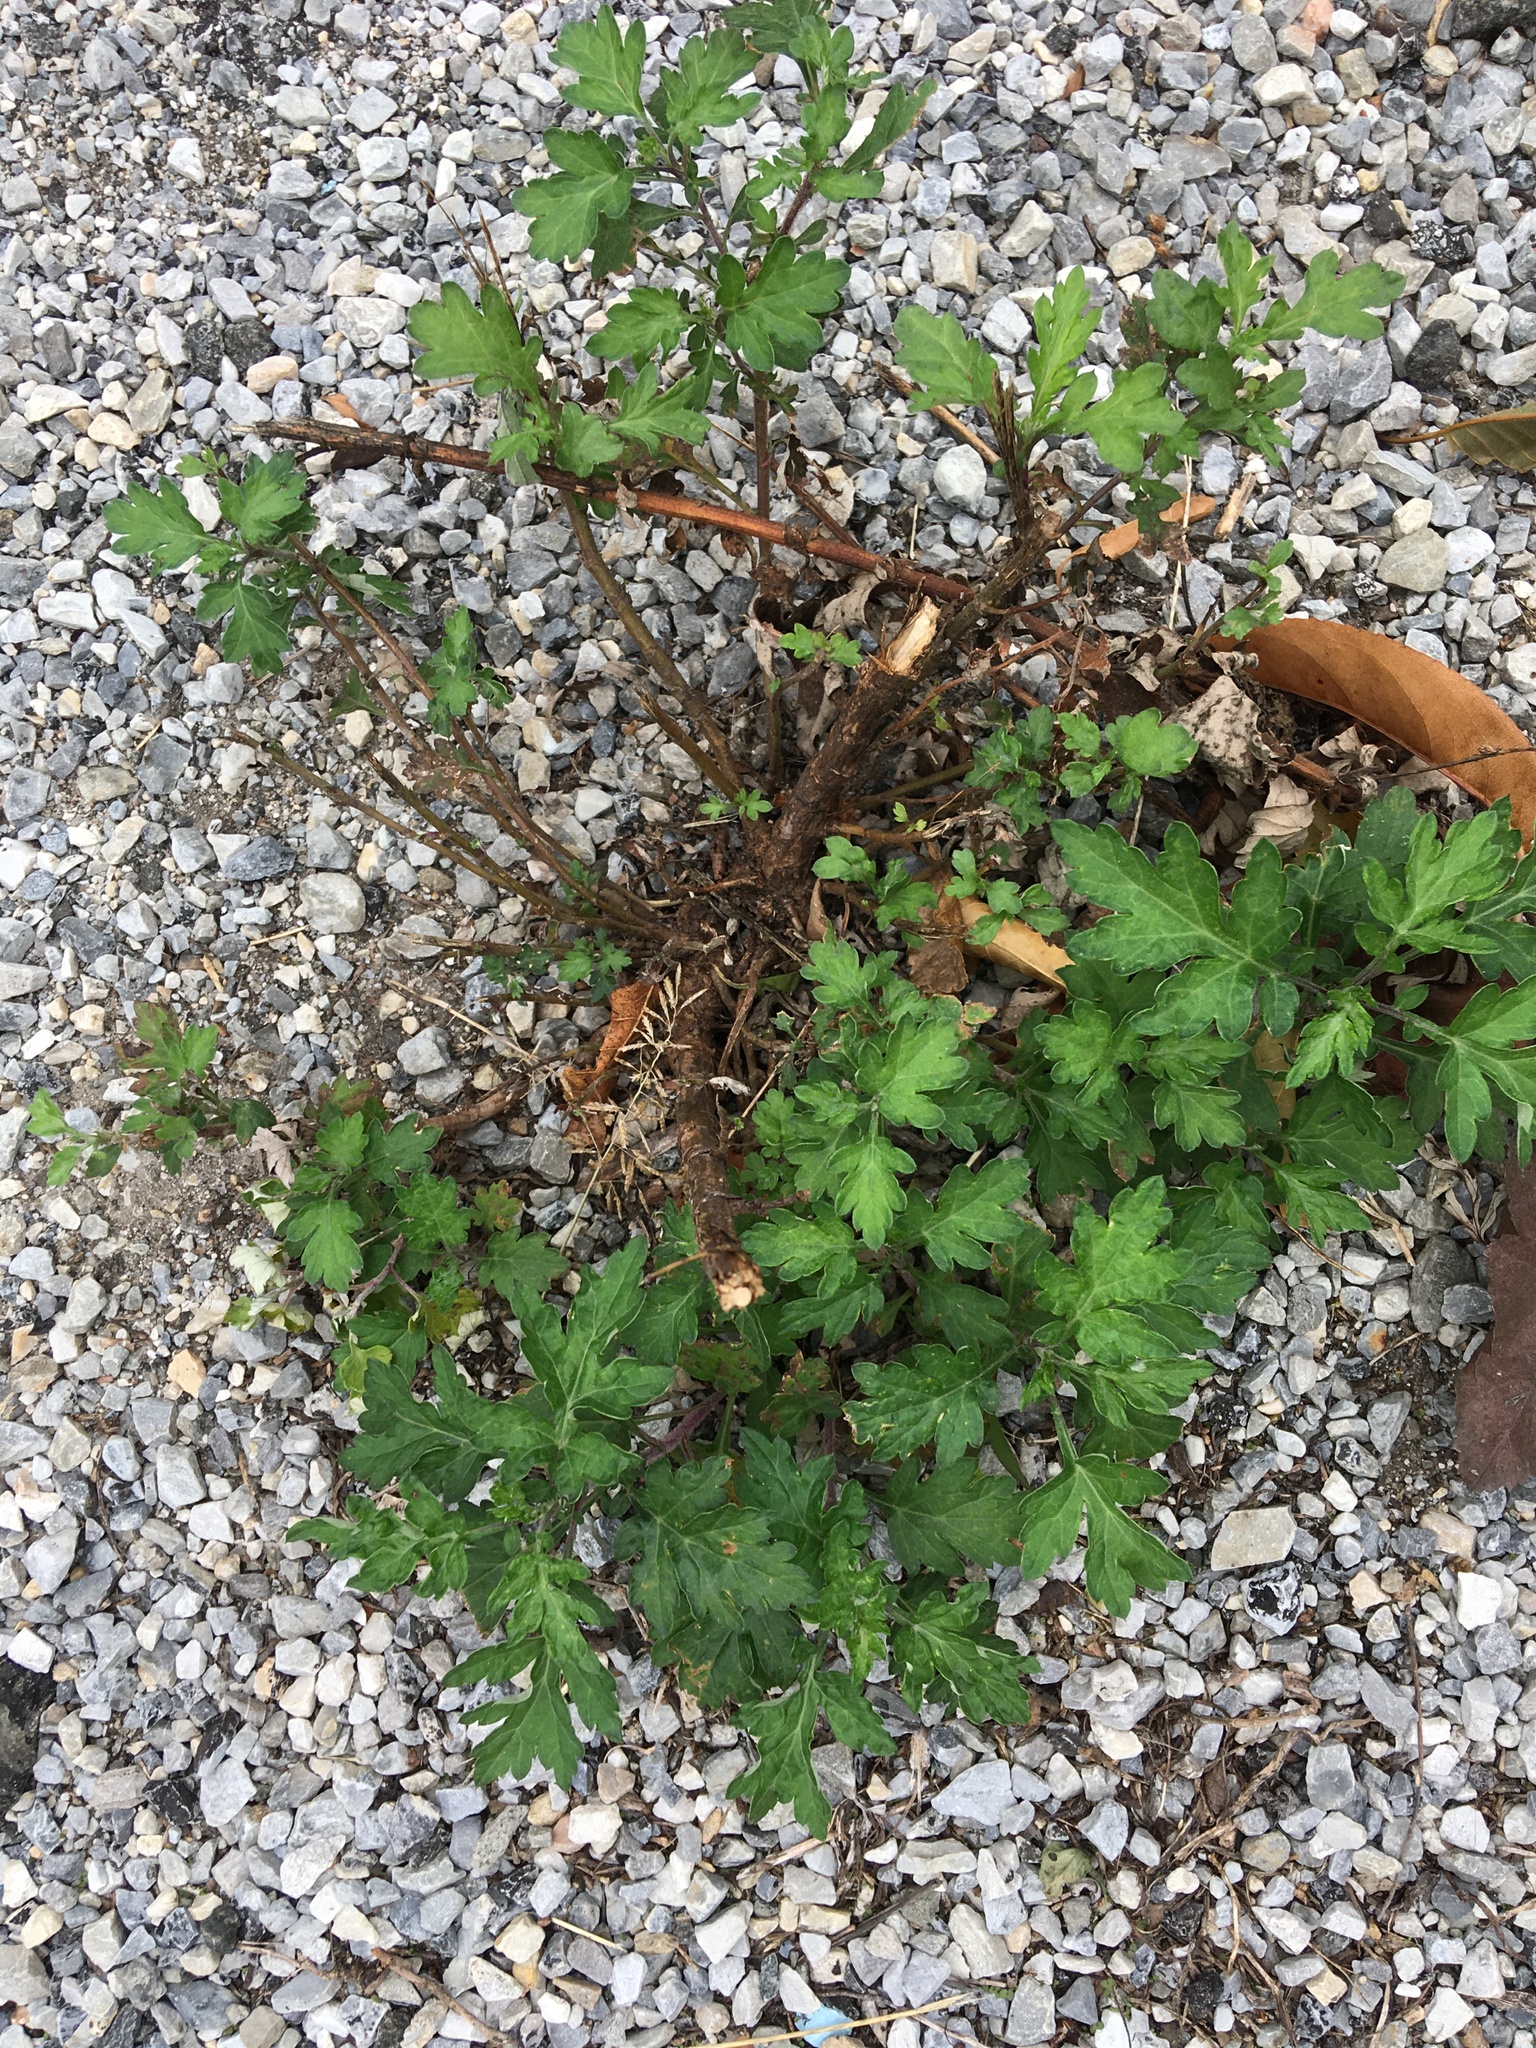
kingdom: Plantae
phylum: Tracheophyta
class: Magnoliopsida
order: Asterales
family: Asteraceae
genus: Artemisia
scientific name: Artemisia vulgaris
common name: Mugwort
